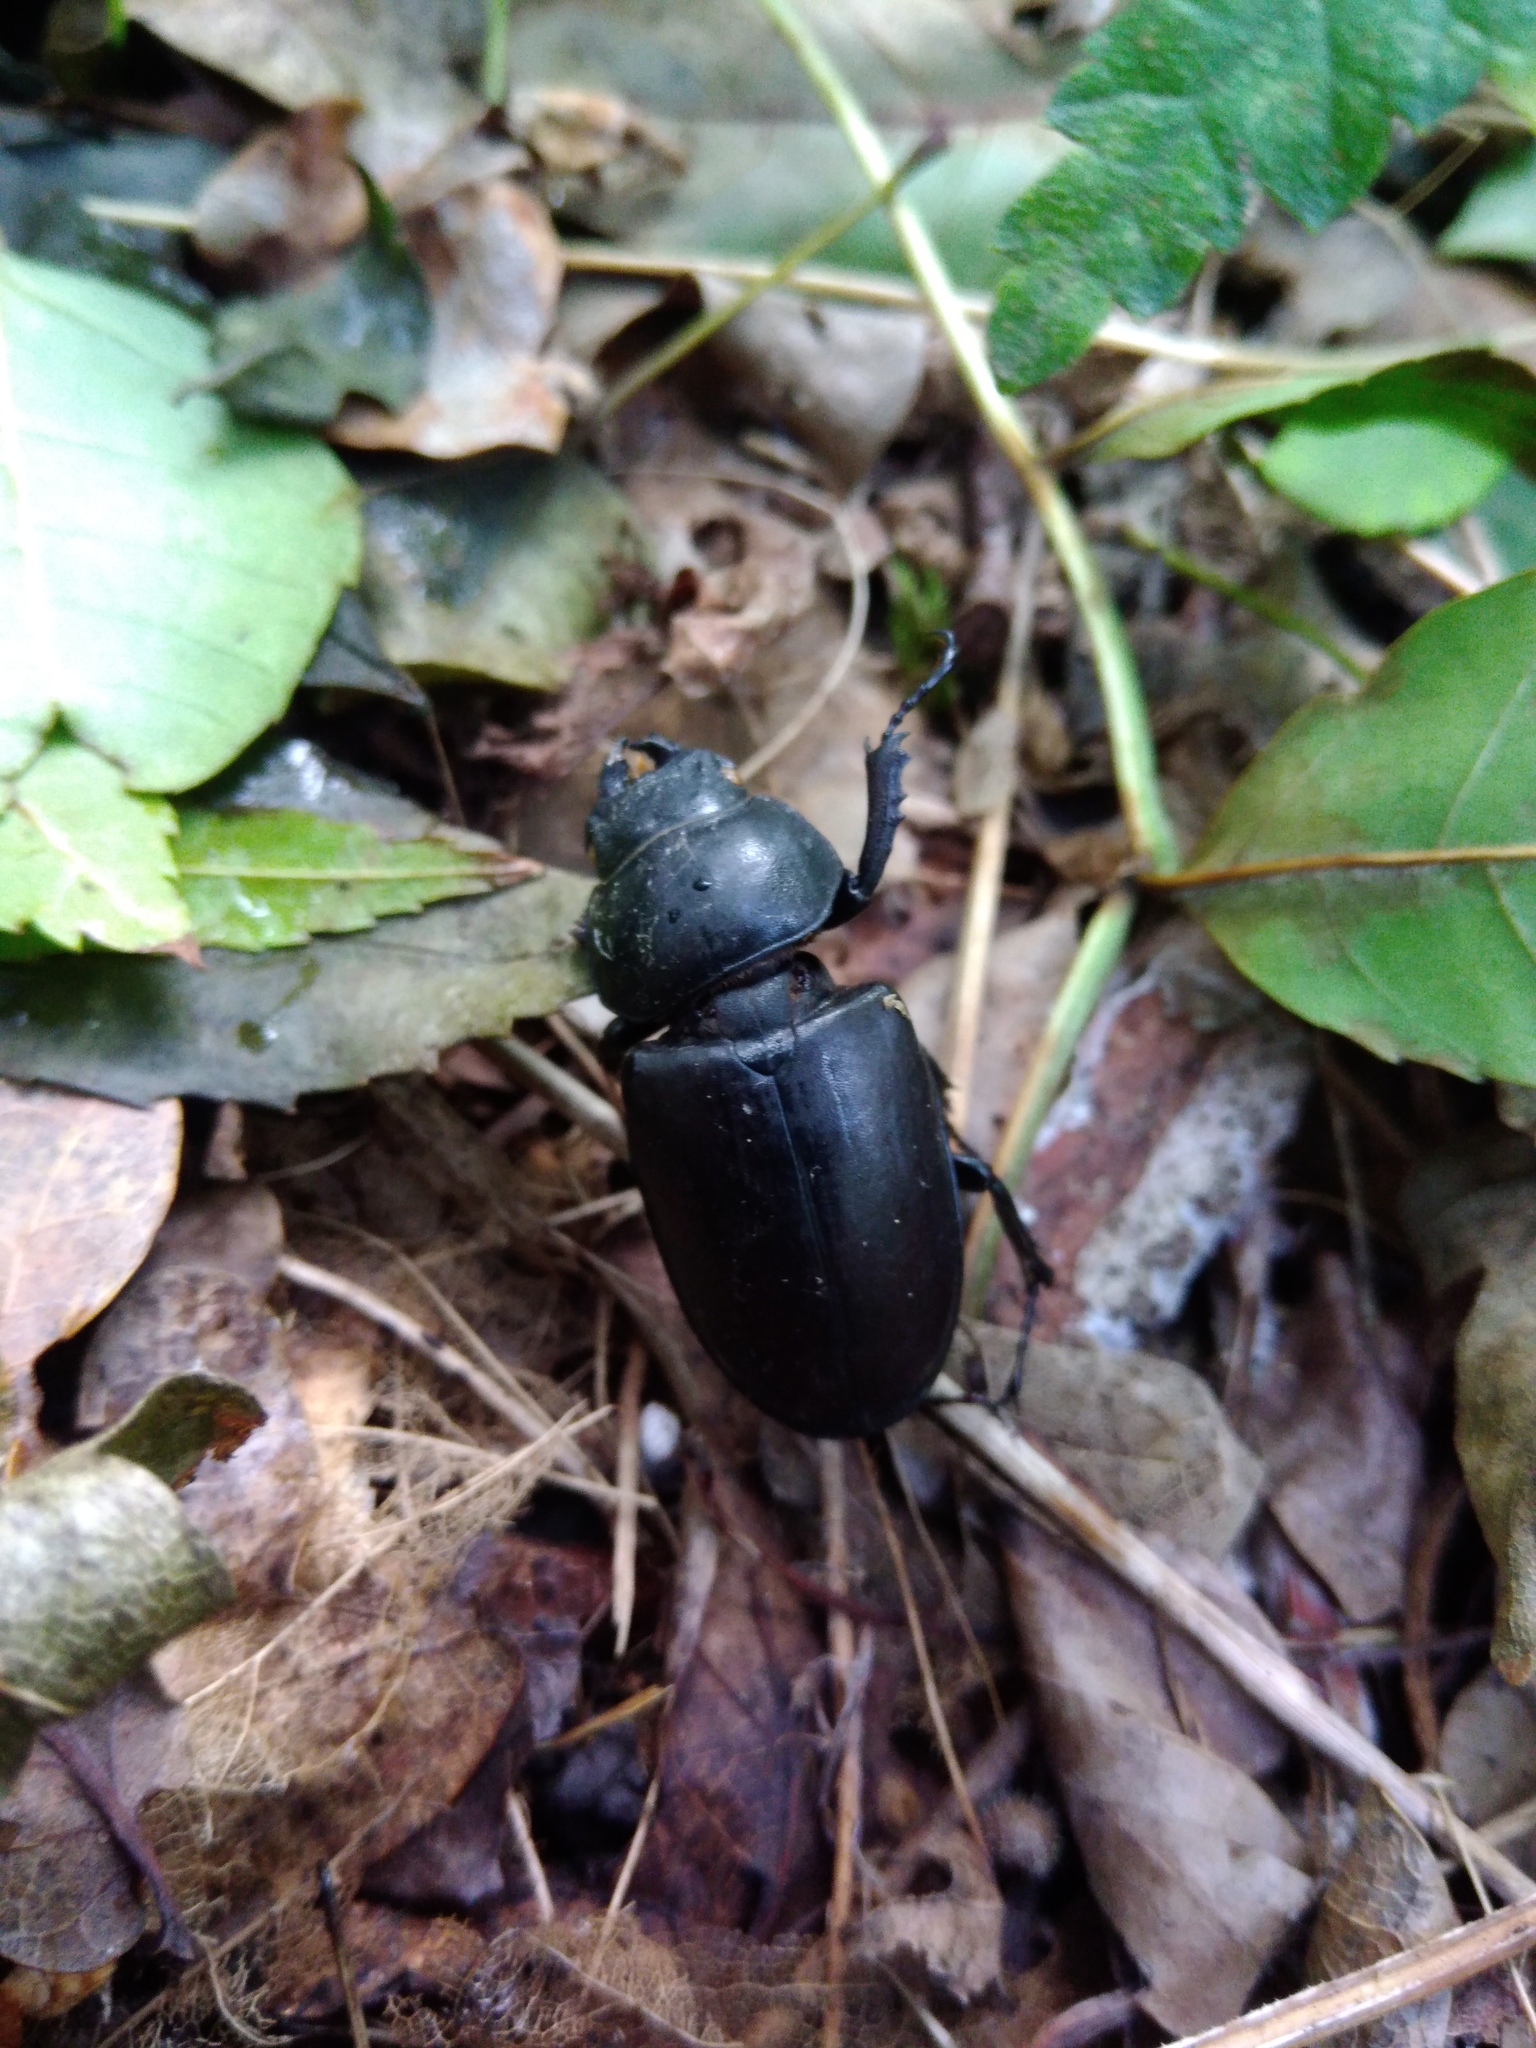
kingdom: Animalia
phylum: Arthropoda
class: Insecta
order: Coleoptera
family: Lucanidae
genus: Lucanus
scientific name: Lucanus cervus
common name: Stag beetle
